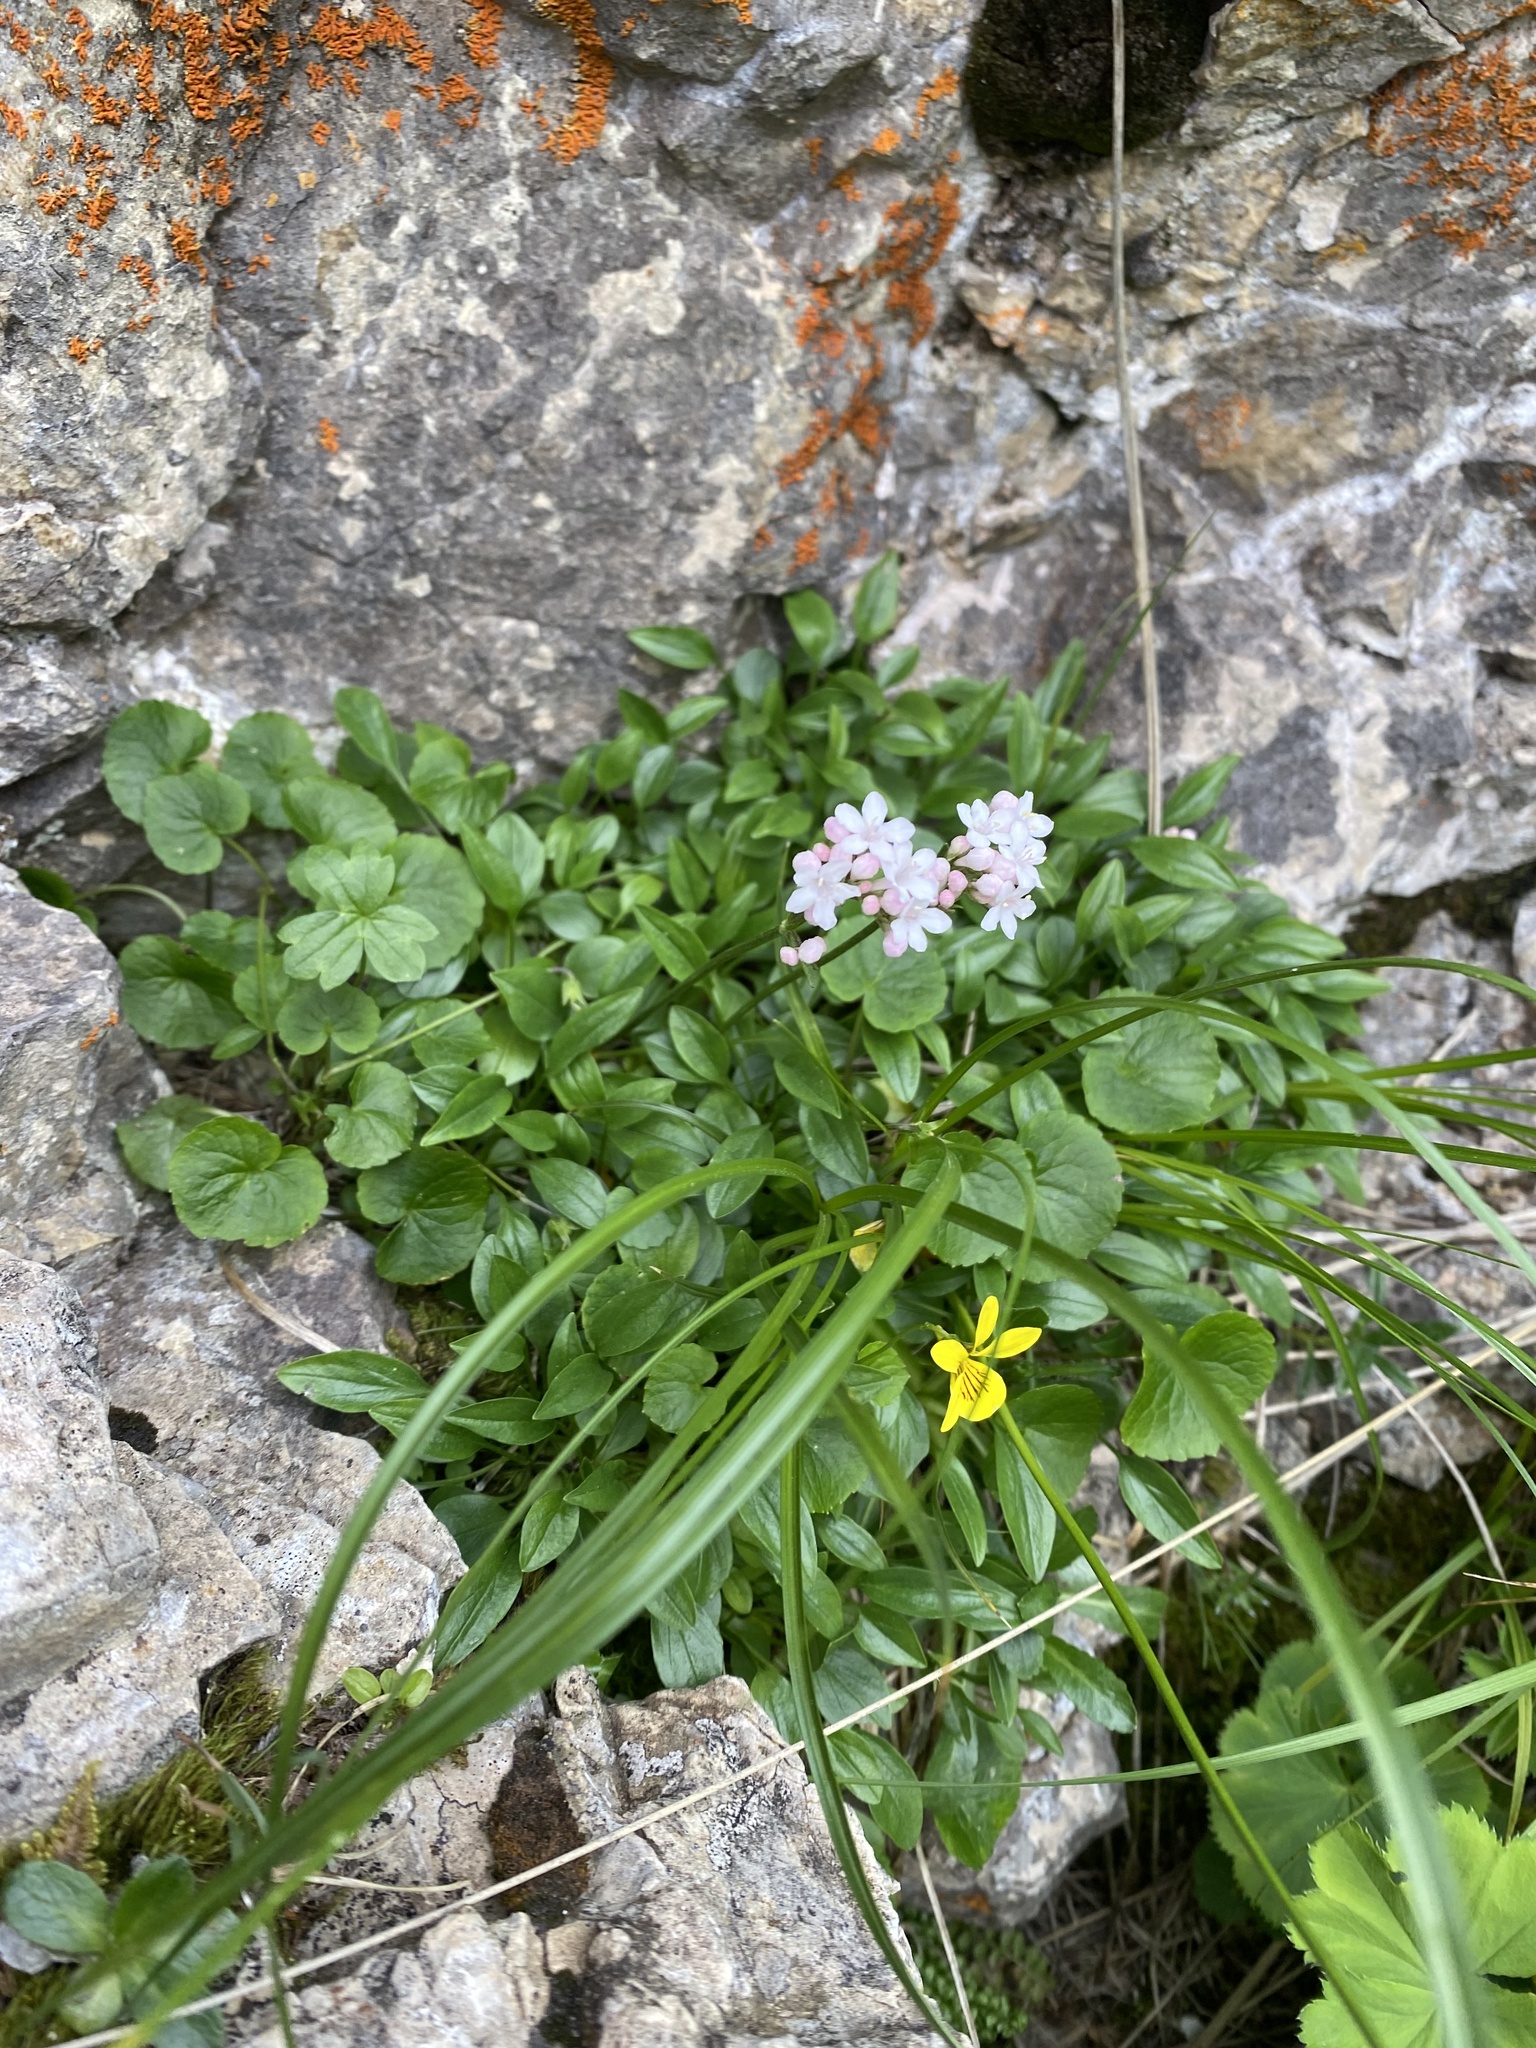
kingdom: Plantae
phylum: Tracheophyta
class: Magnoliopsida
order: Dipsacales
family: Caprifoliaceae
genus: Valeriana
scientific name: Valeriana alpestris
